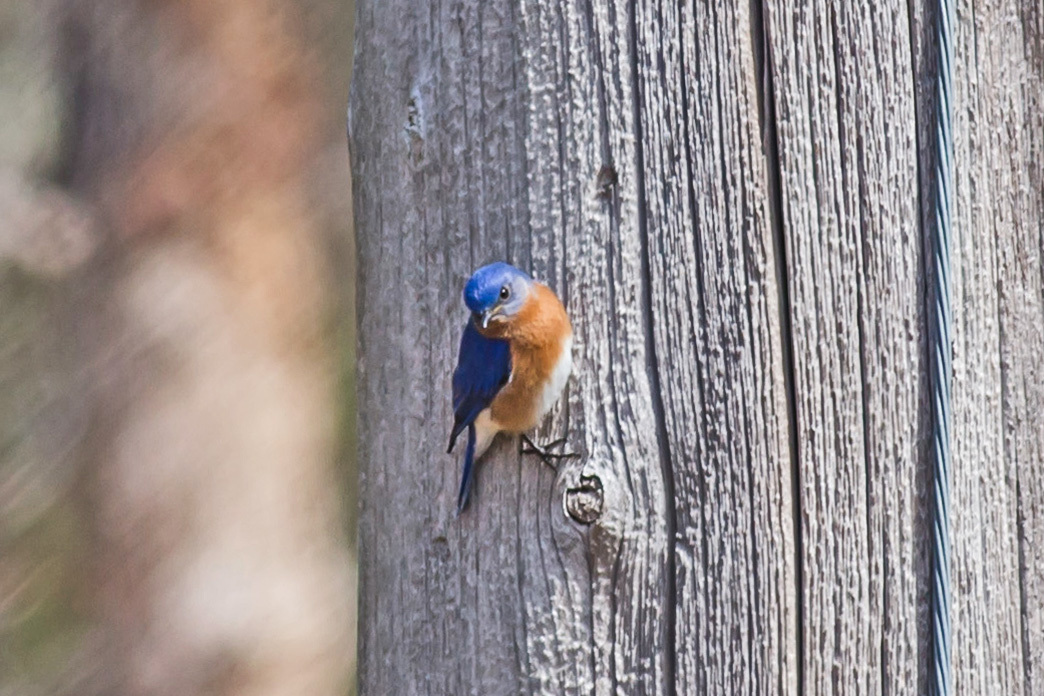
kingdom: Animalia
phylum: Chordata
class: Aves
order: Passeriformes
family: Turdidae
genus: Sialia
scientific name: Sialia sialis
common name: Eastern bluebird
